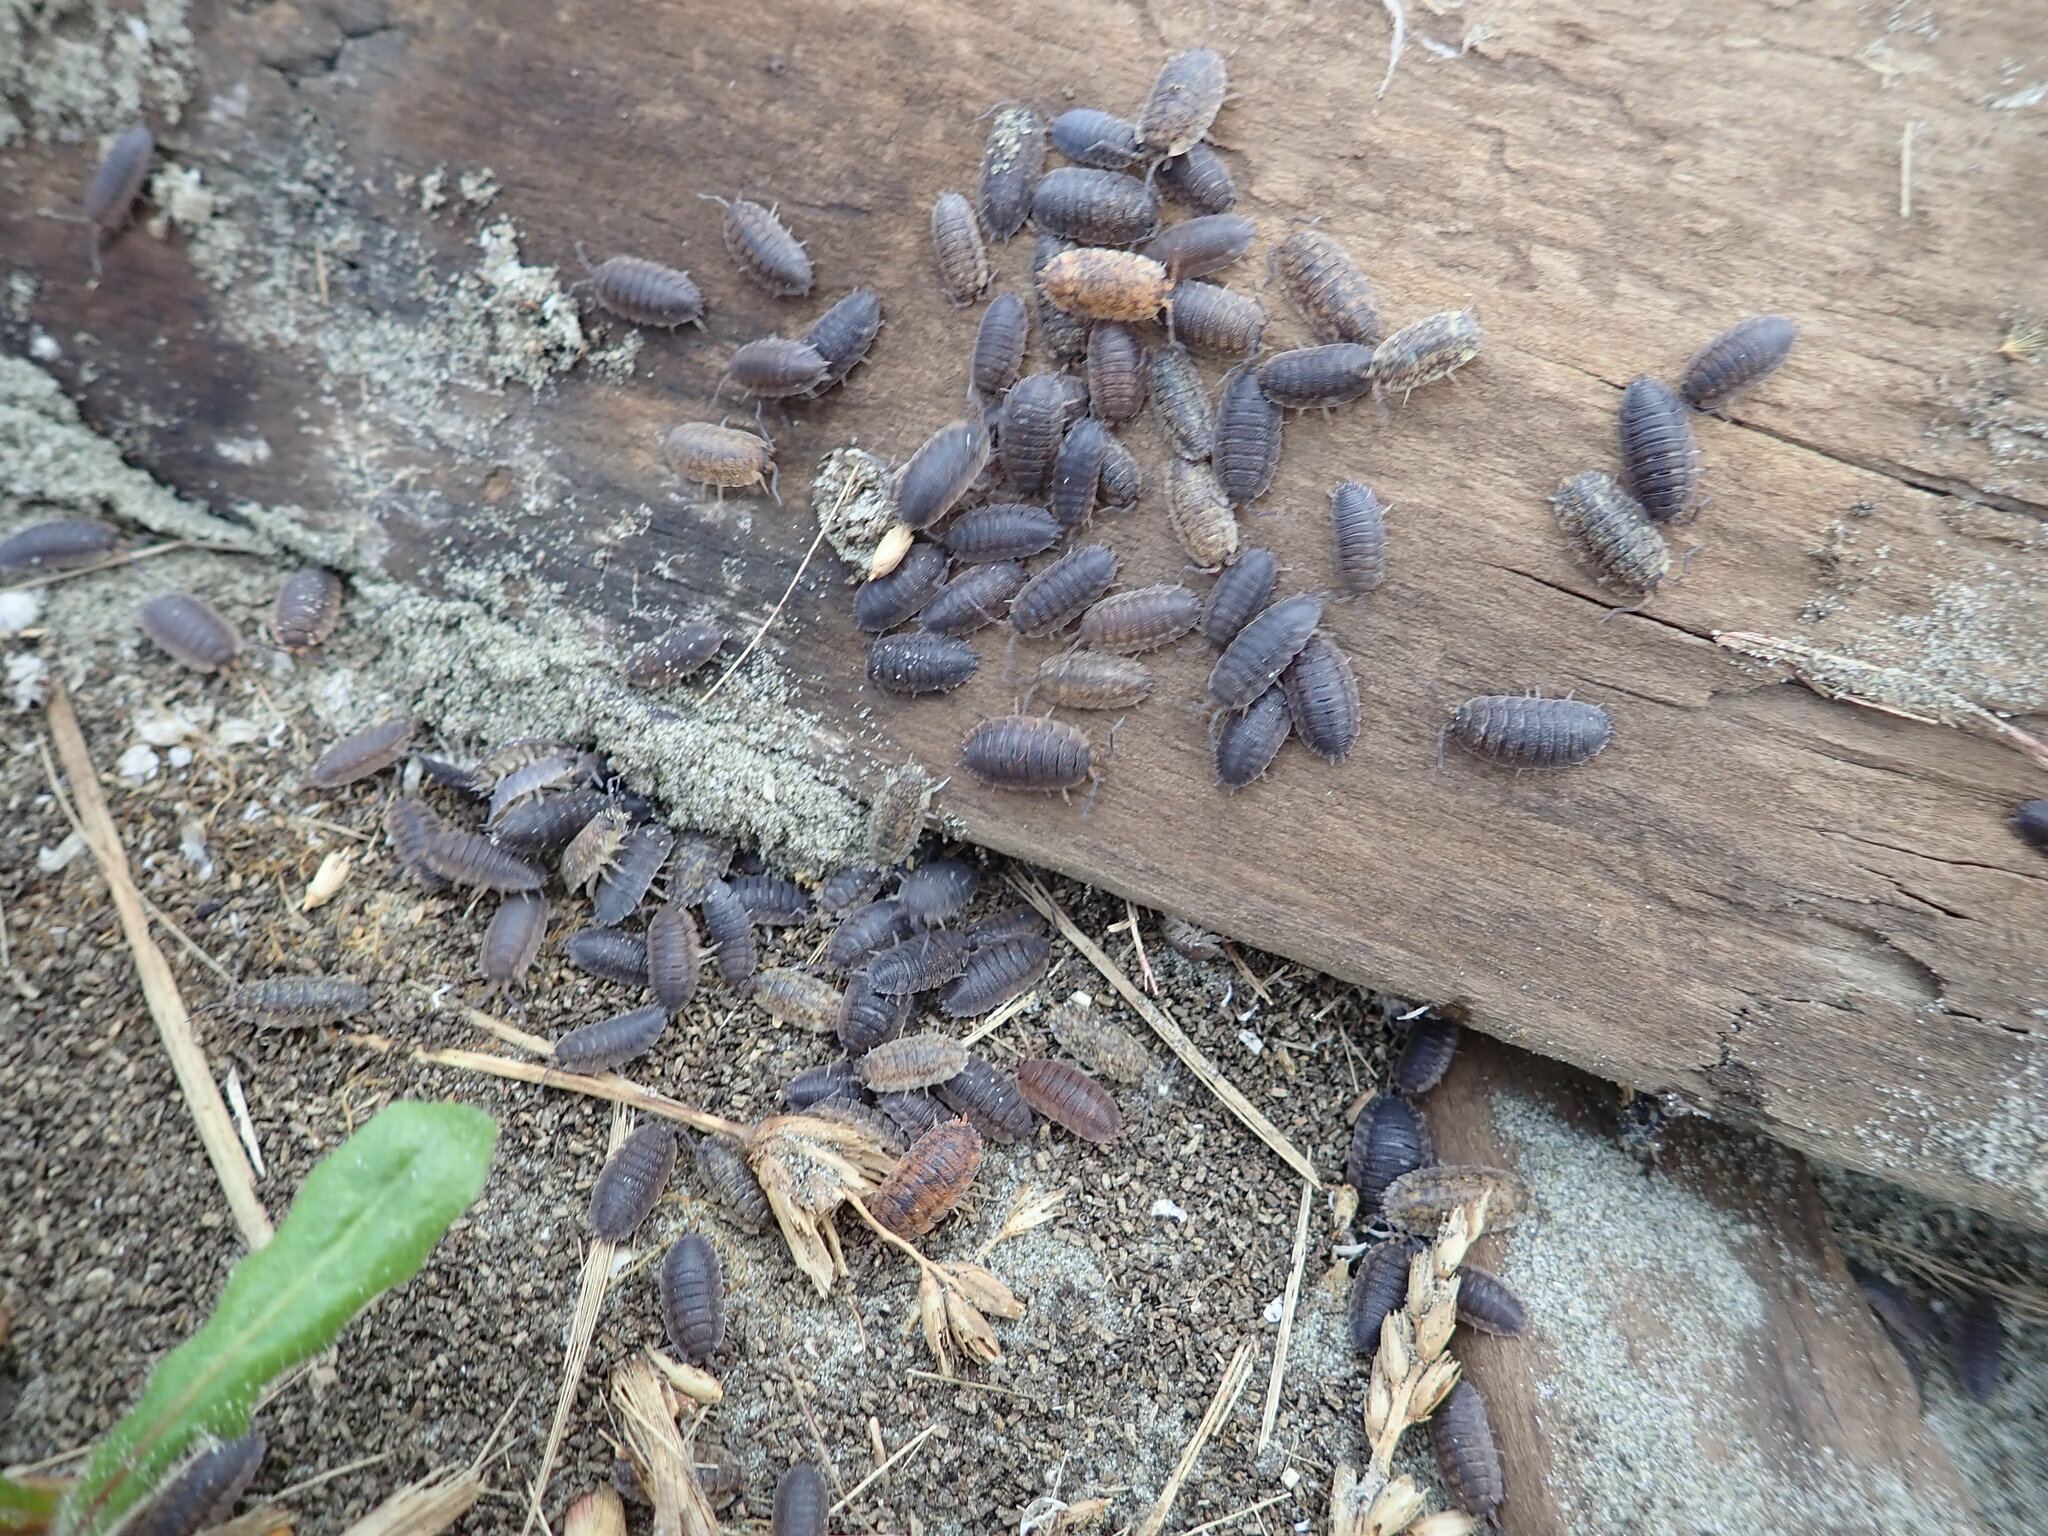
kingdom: Animalia
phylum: Arthropoda
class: Malacostraca
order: Isopoda
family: Porcellionidae
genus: Porcellio
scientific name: Porcellio scaber
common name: Common rough woodlouse
